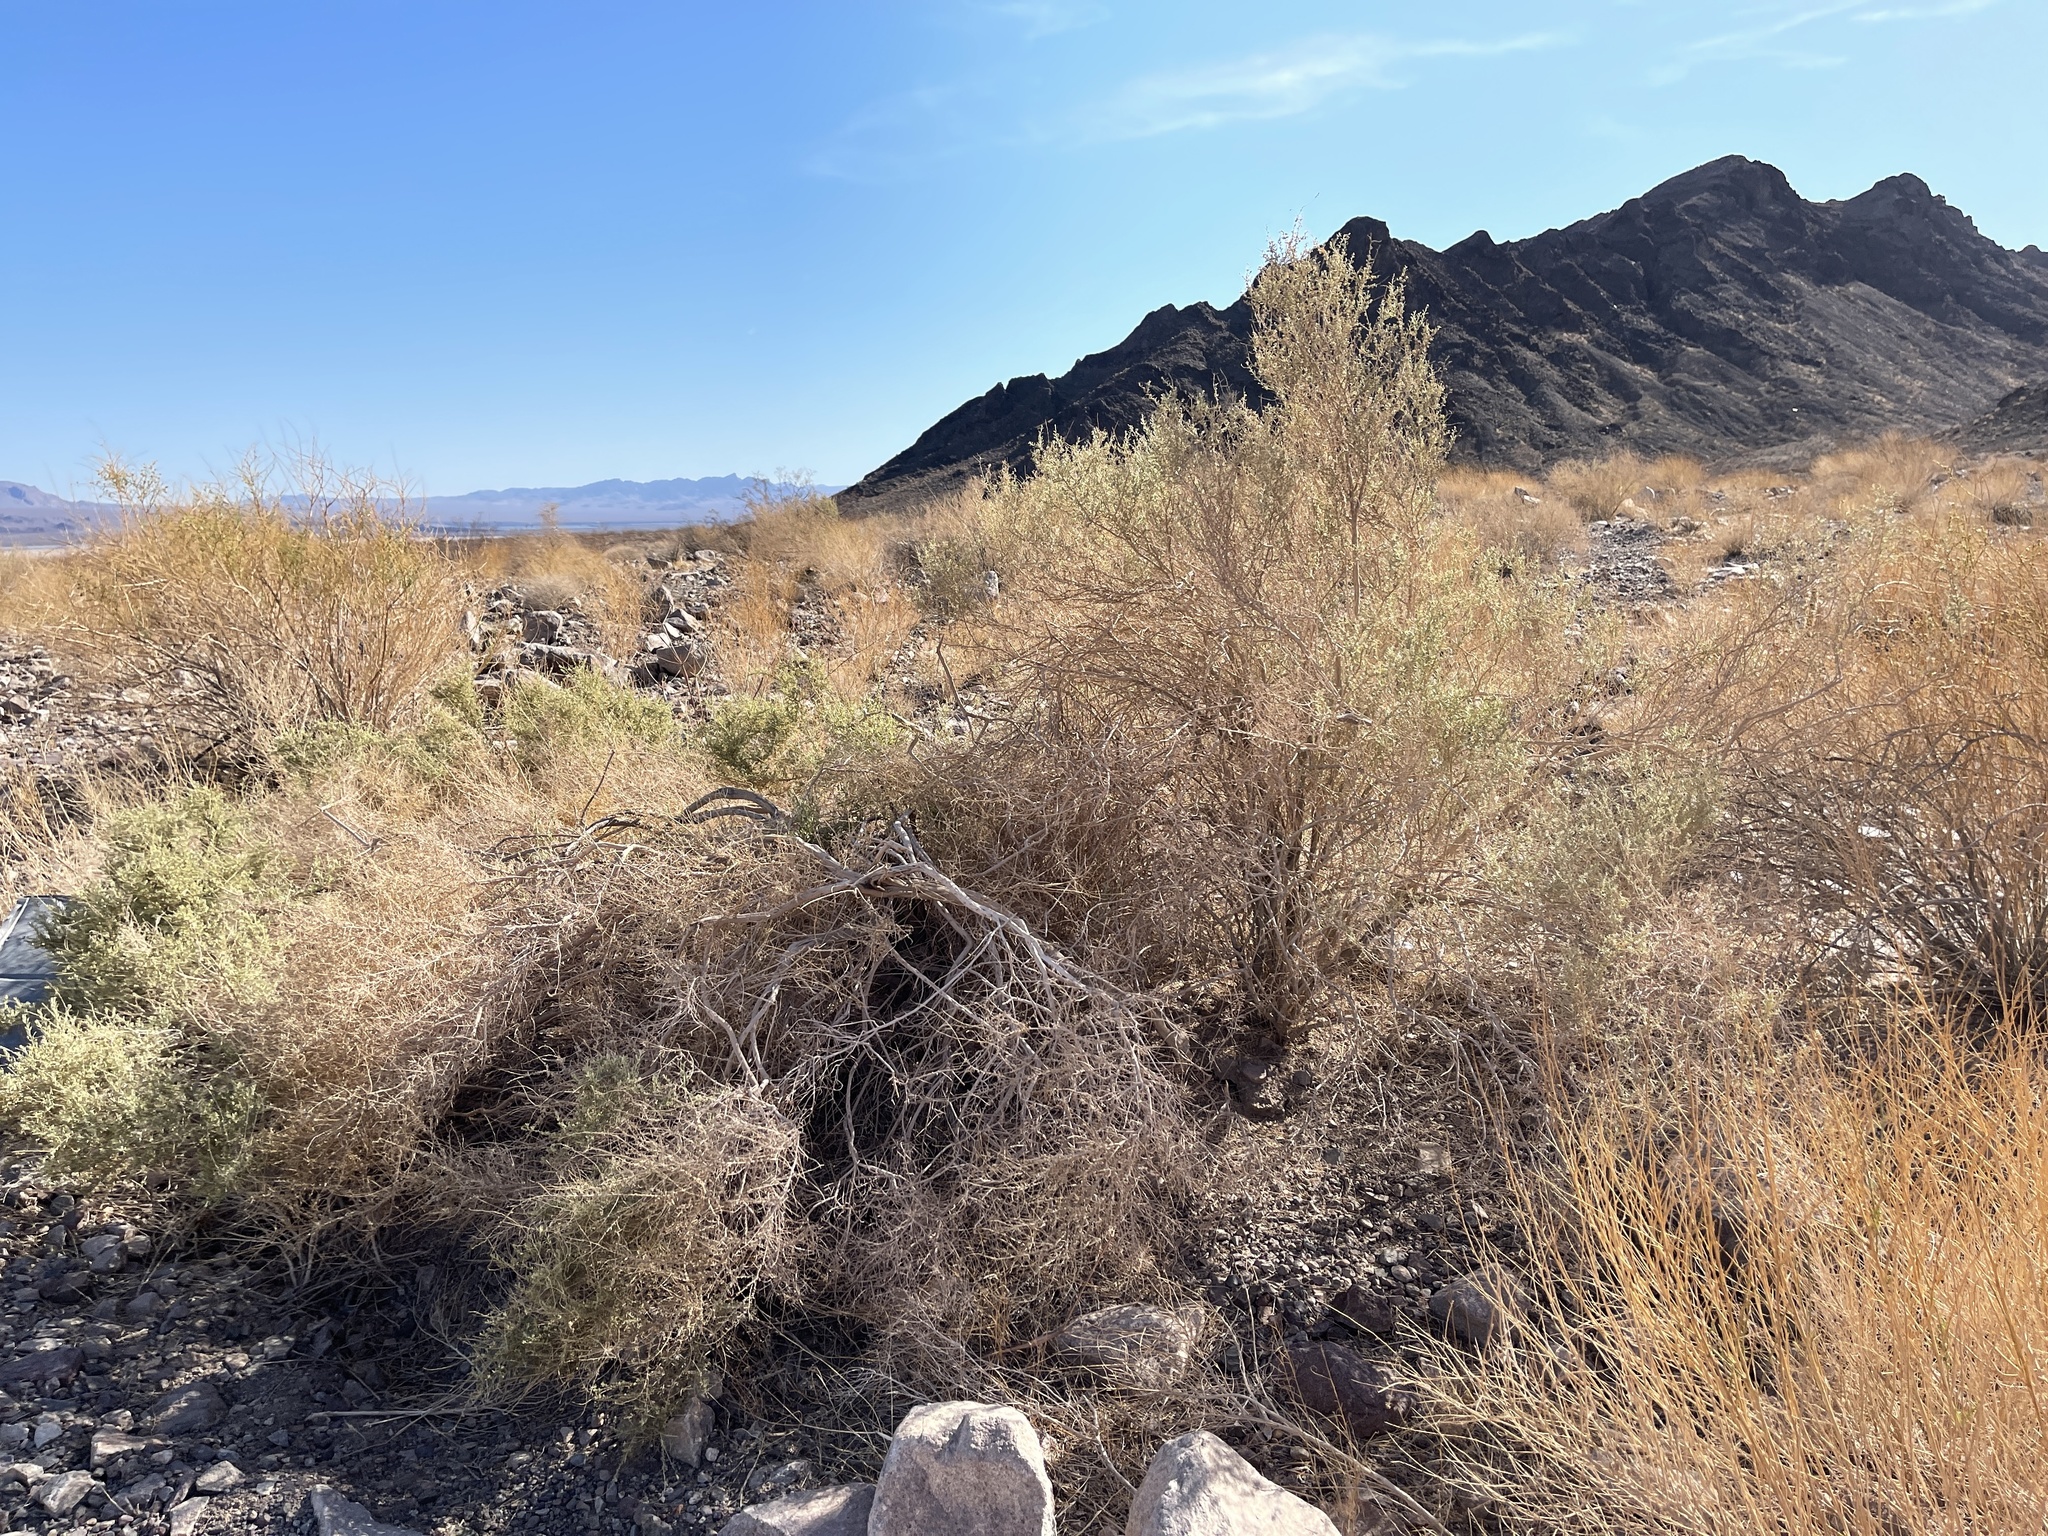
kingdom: Plantae
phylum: Tracheophyta
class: Magnoliopsida
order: Caryophyllales
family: Amaranthaceae
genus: Atriplex
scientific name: Atriplex polycarpa
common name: Desert saltbush
